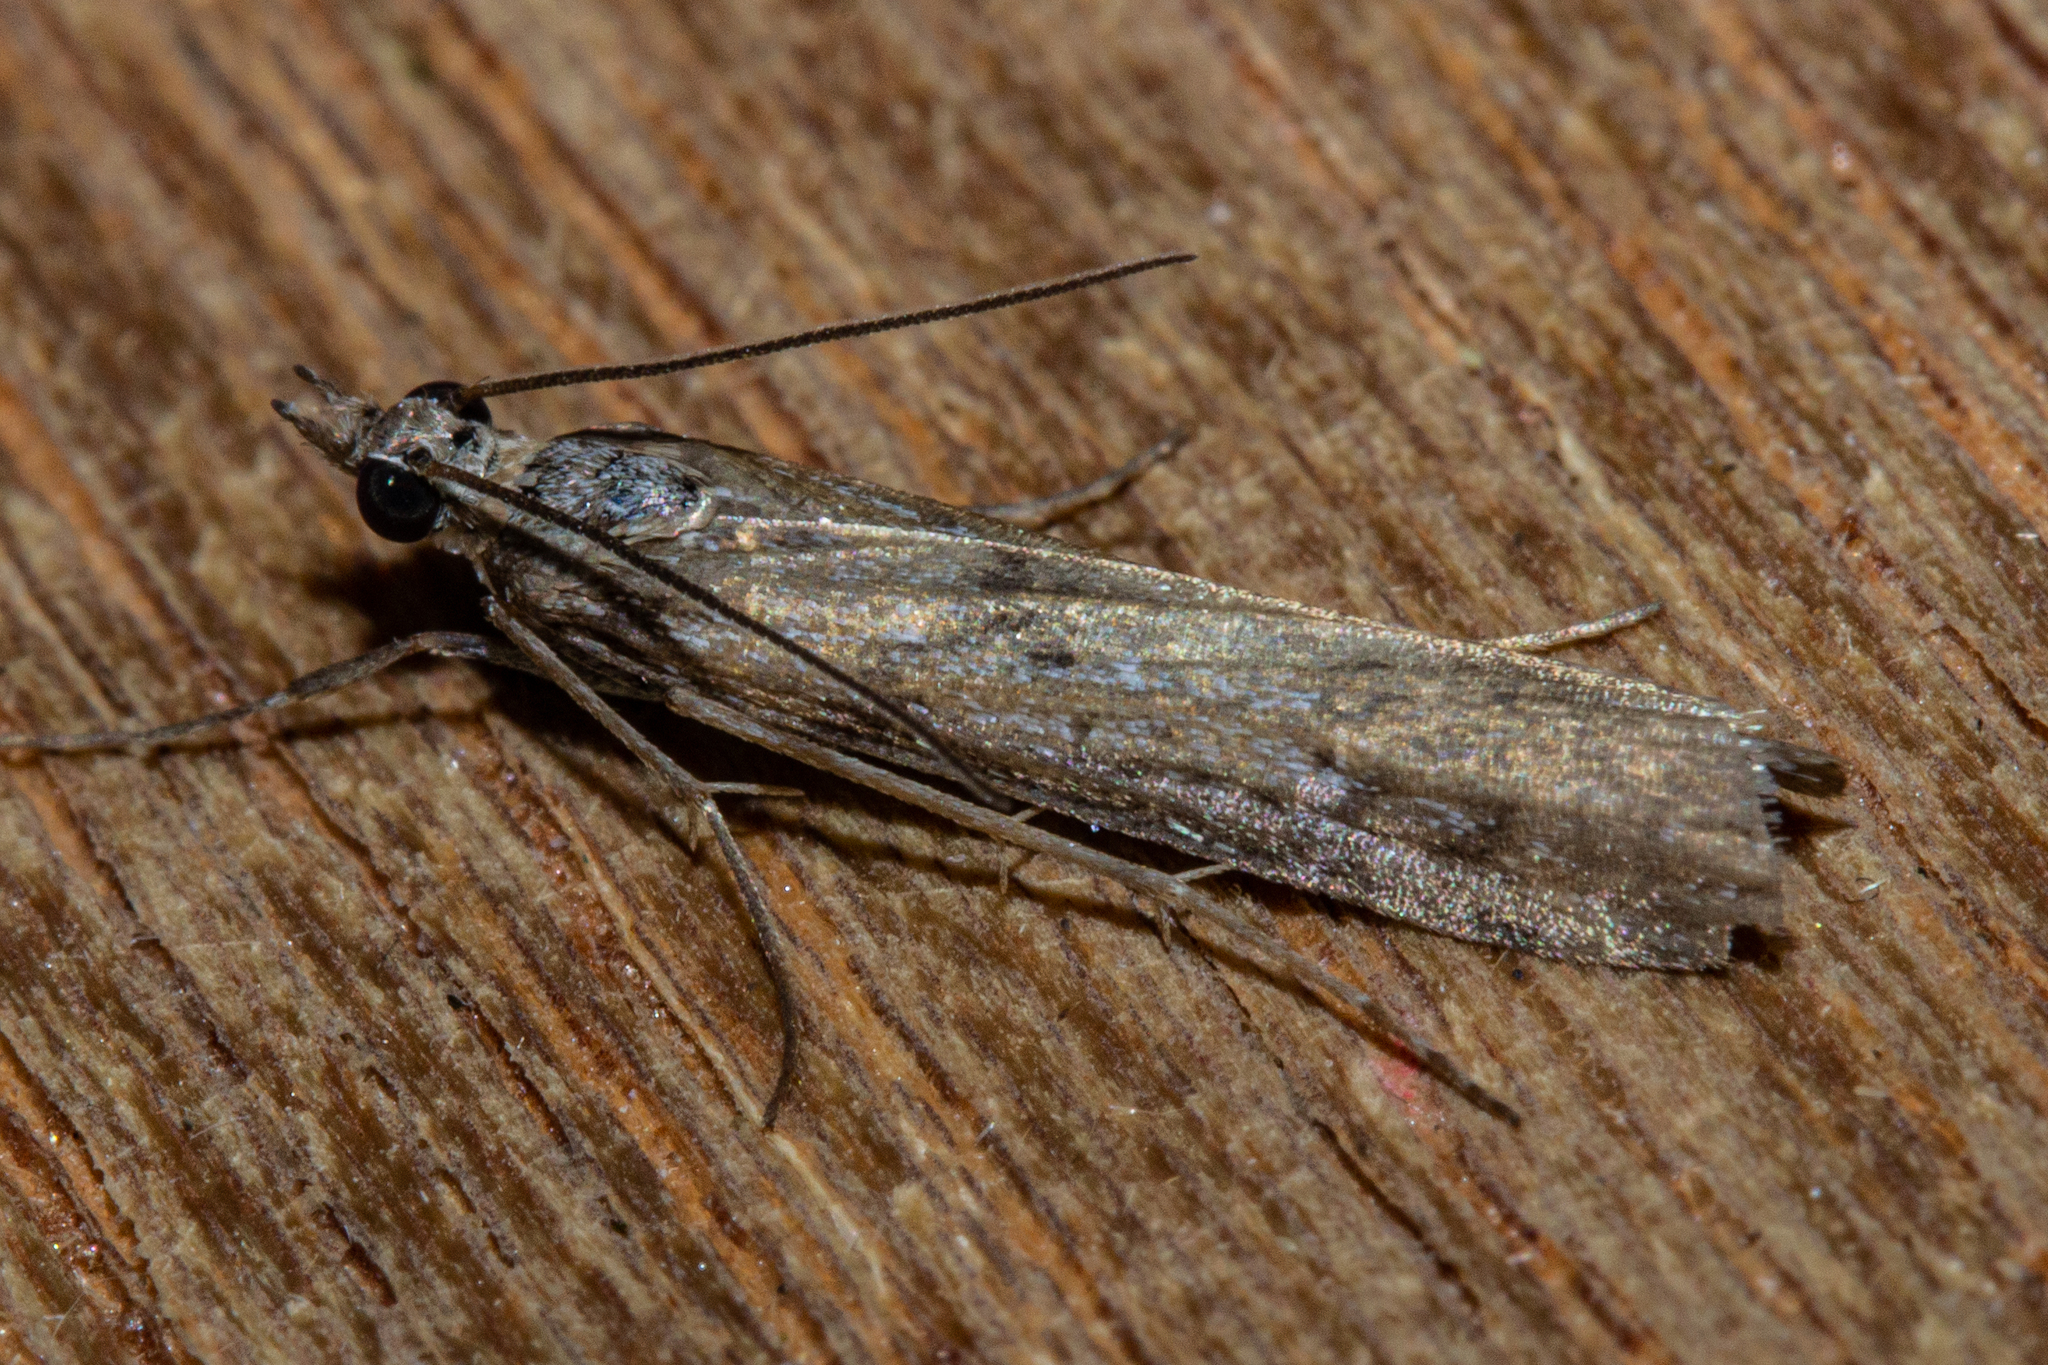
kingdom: Animalia
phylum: Arthropoda
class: Insecta
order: Lepidoptera
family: Crambidae
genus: Eudonia
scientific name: Eudonia leptalea
